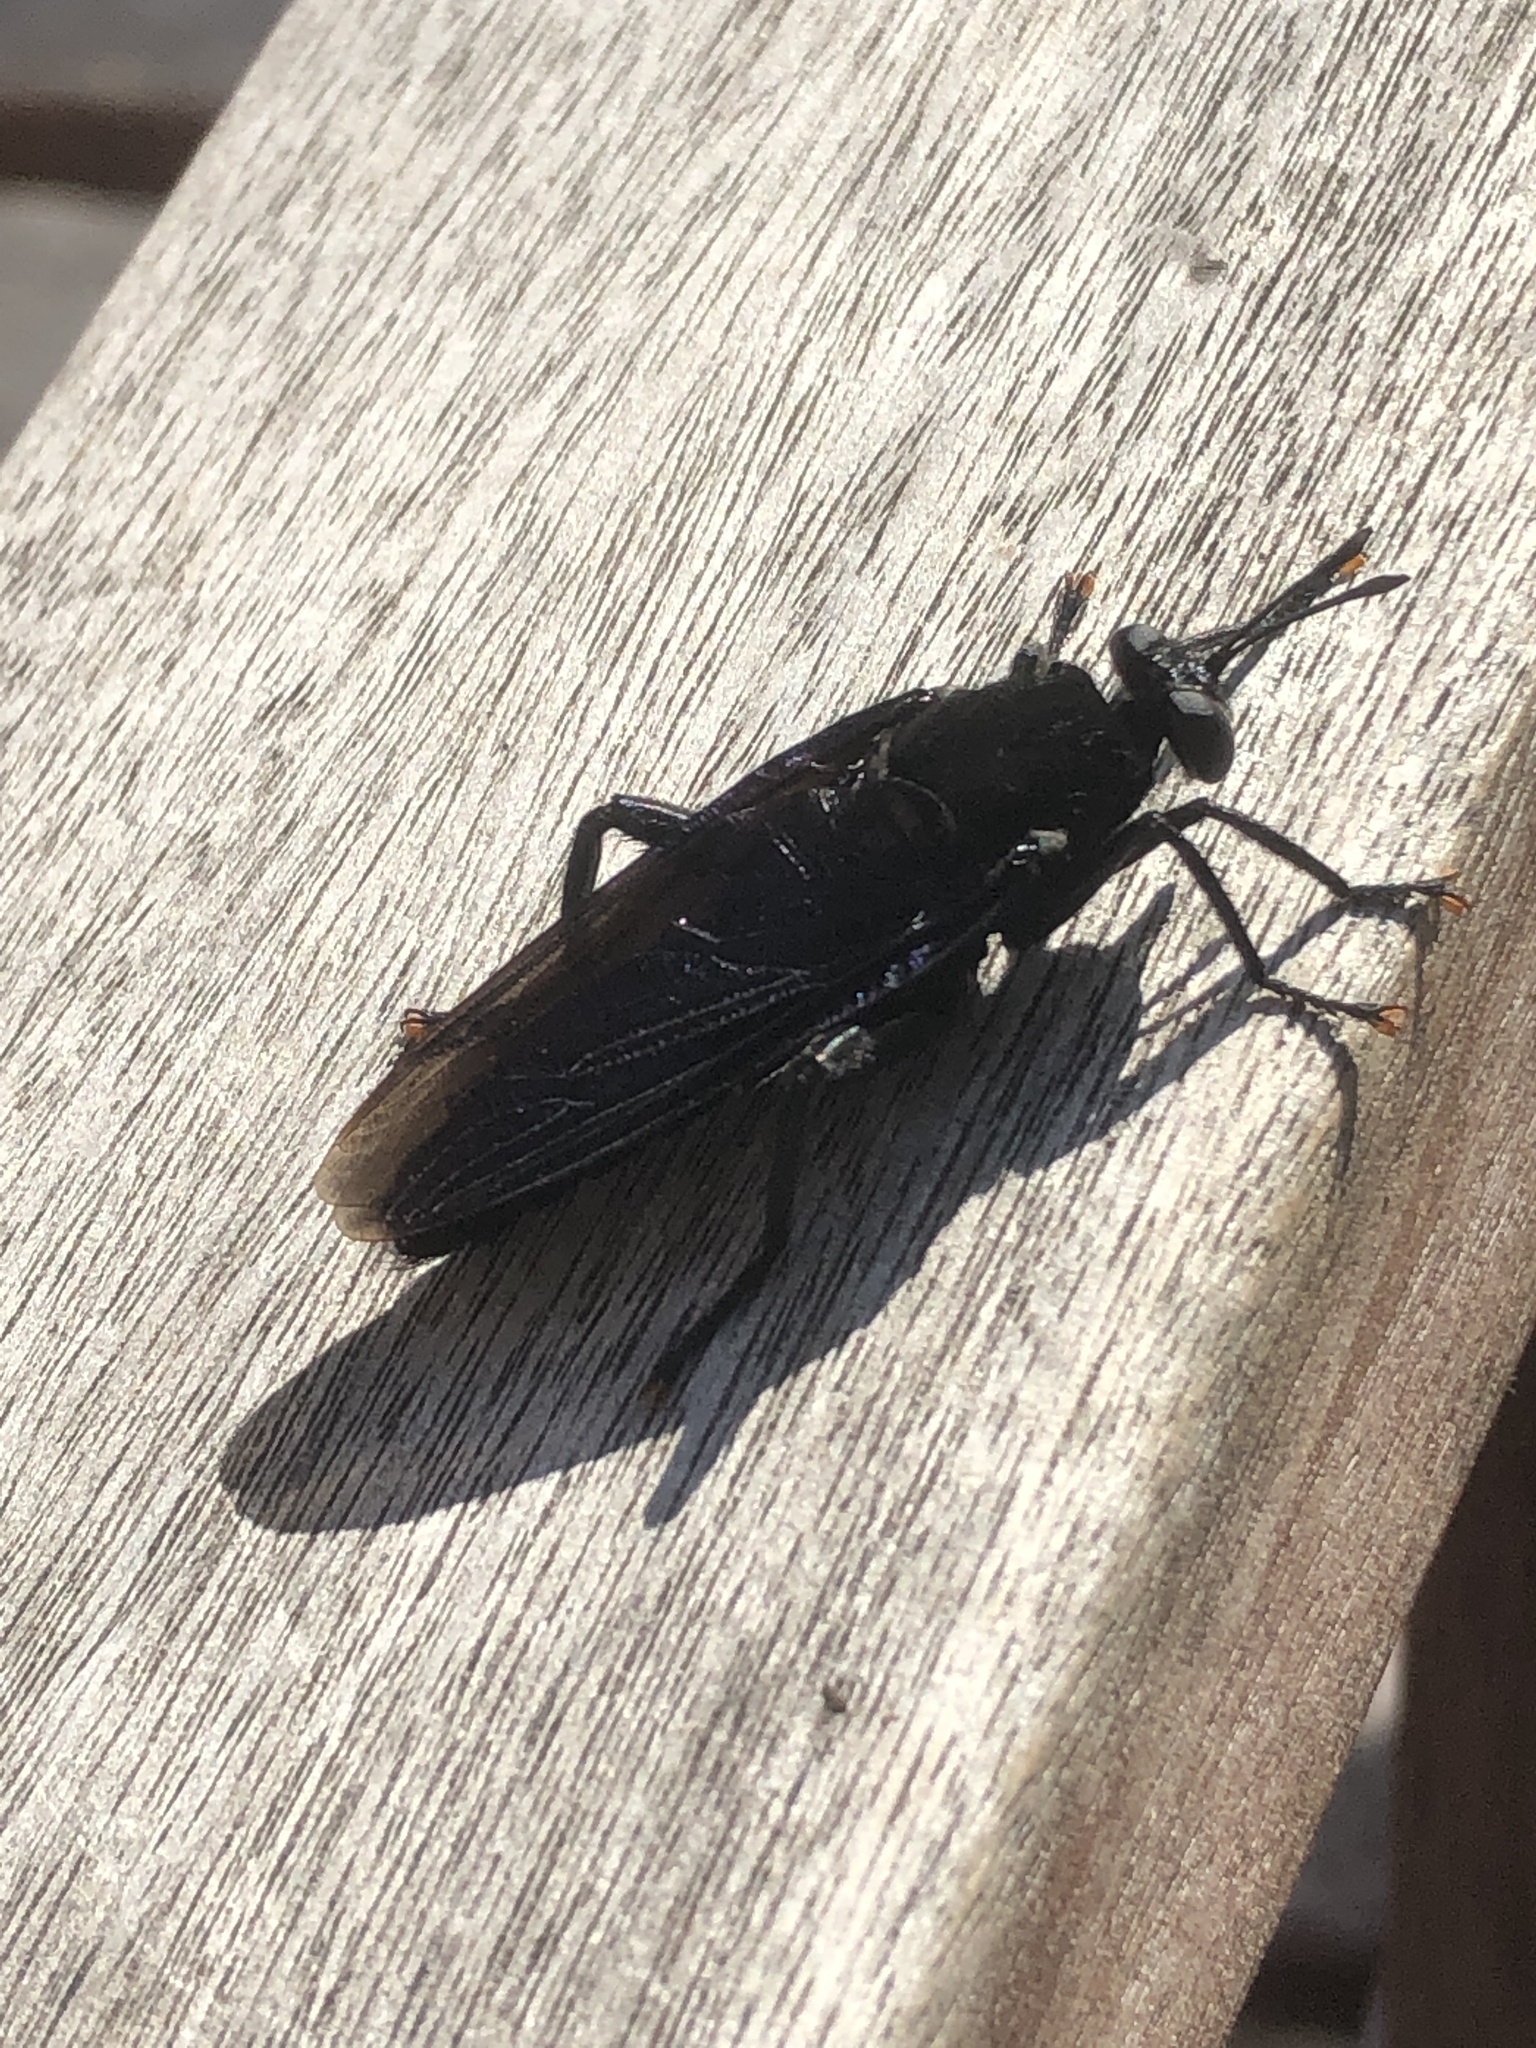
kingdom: Animalia
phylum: Arthropoda
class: Insecta
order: Diptera
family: Mydidae
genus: Mydas
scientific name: Mydas clavatus
